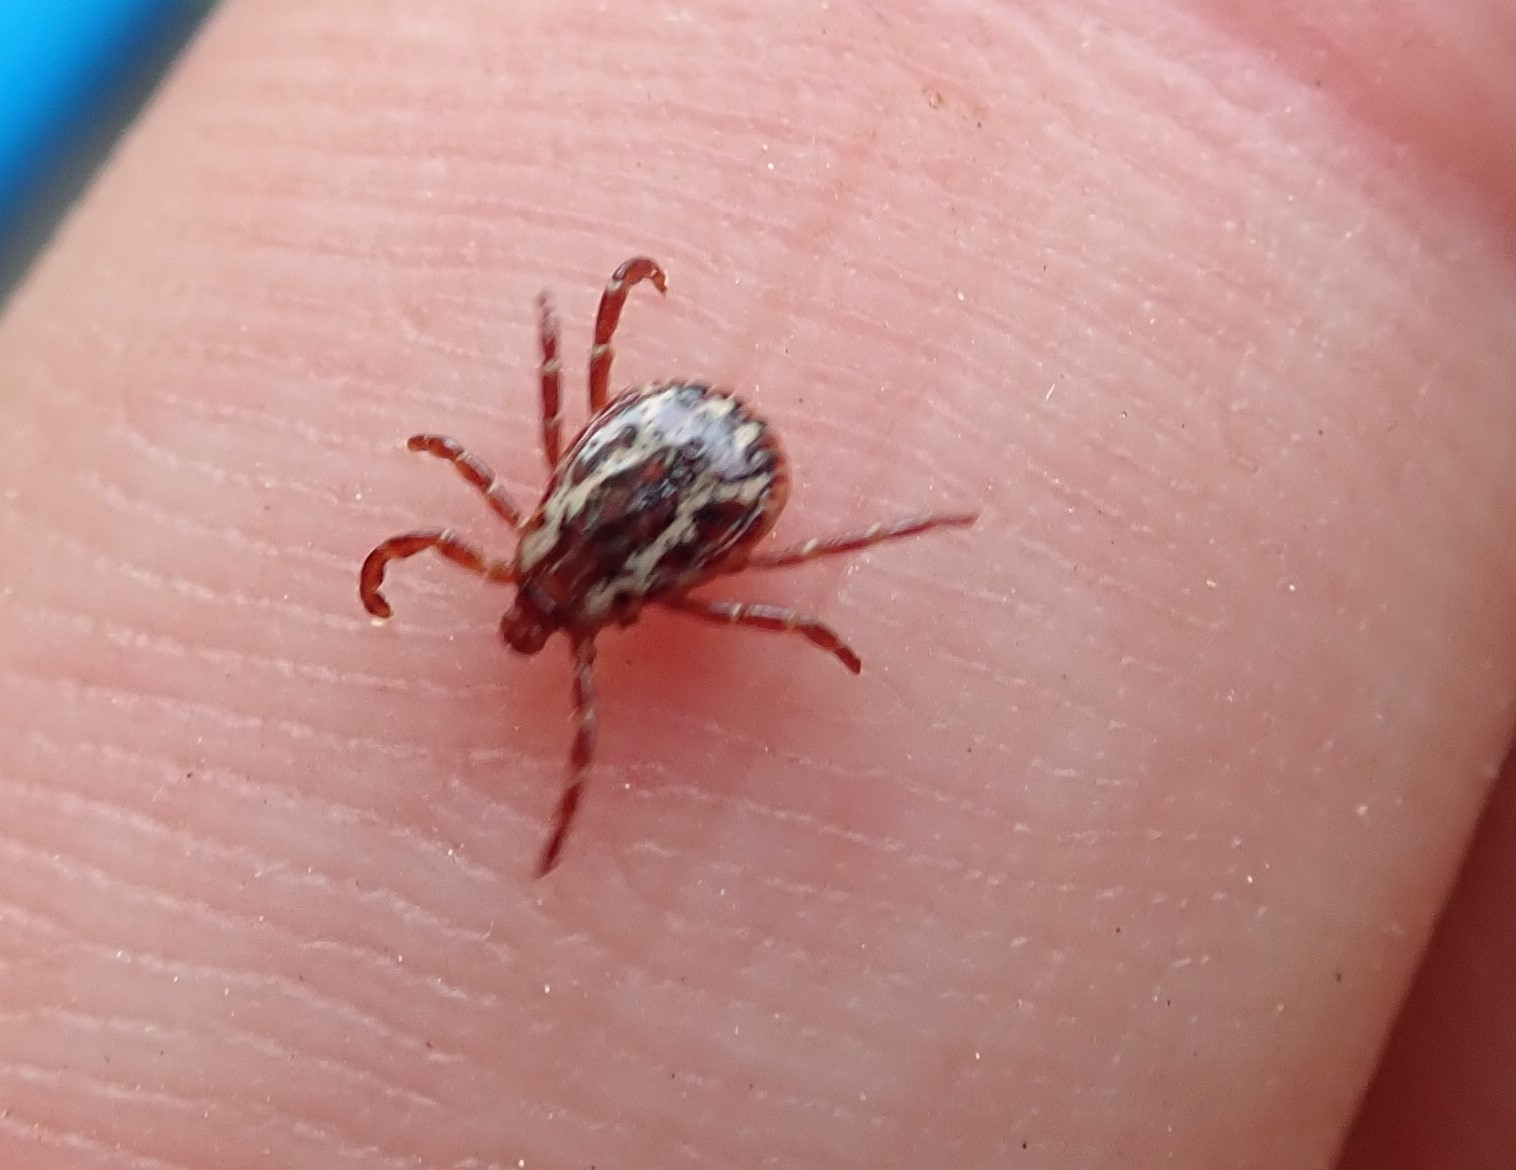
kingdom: Animalia
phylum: Arthropoda
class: Arachnida
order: Ixodida
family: Ixodidae
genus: Dermacentor
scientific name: Dermacentor variabilis
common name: American dog tick
